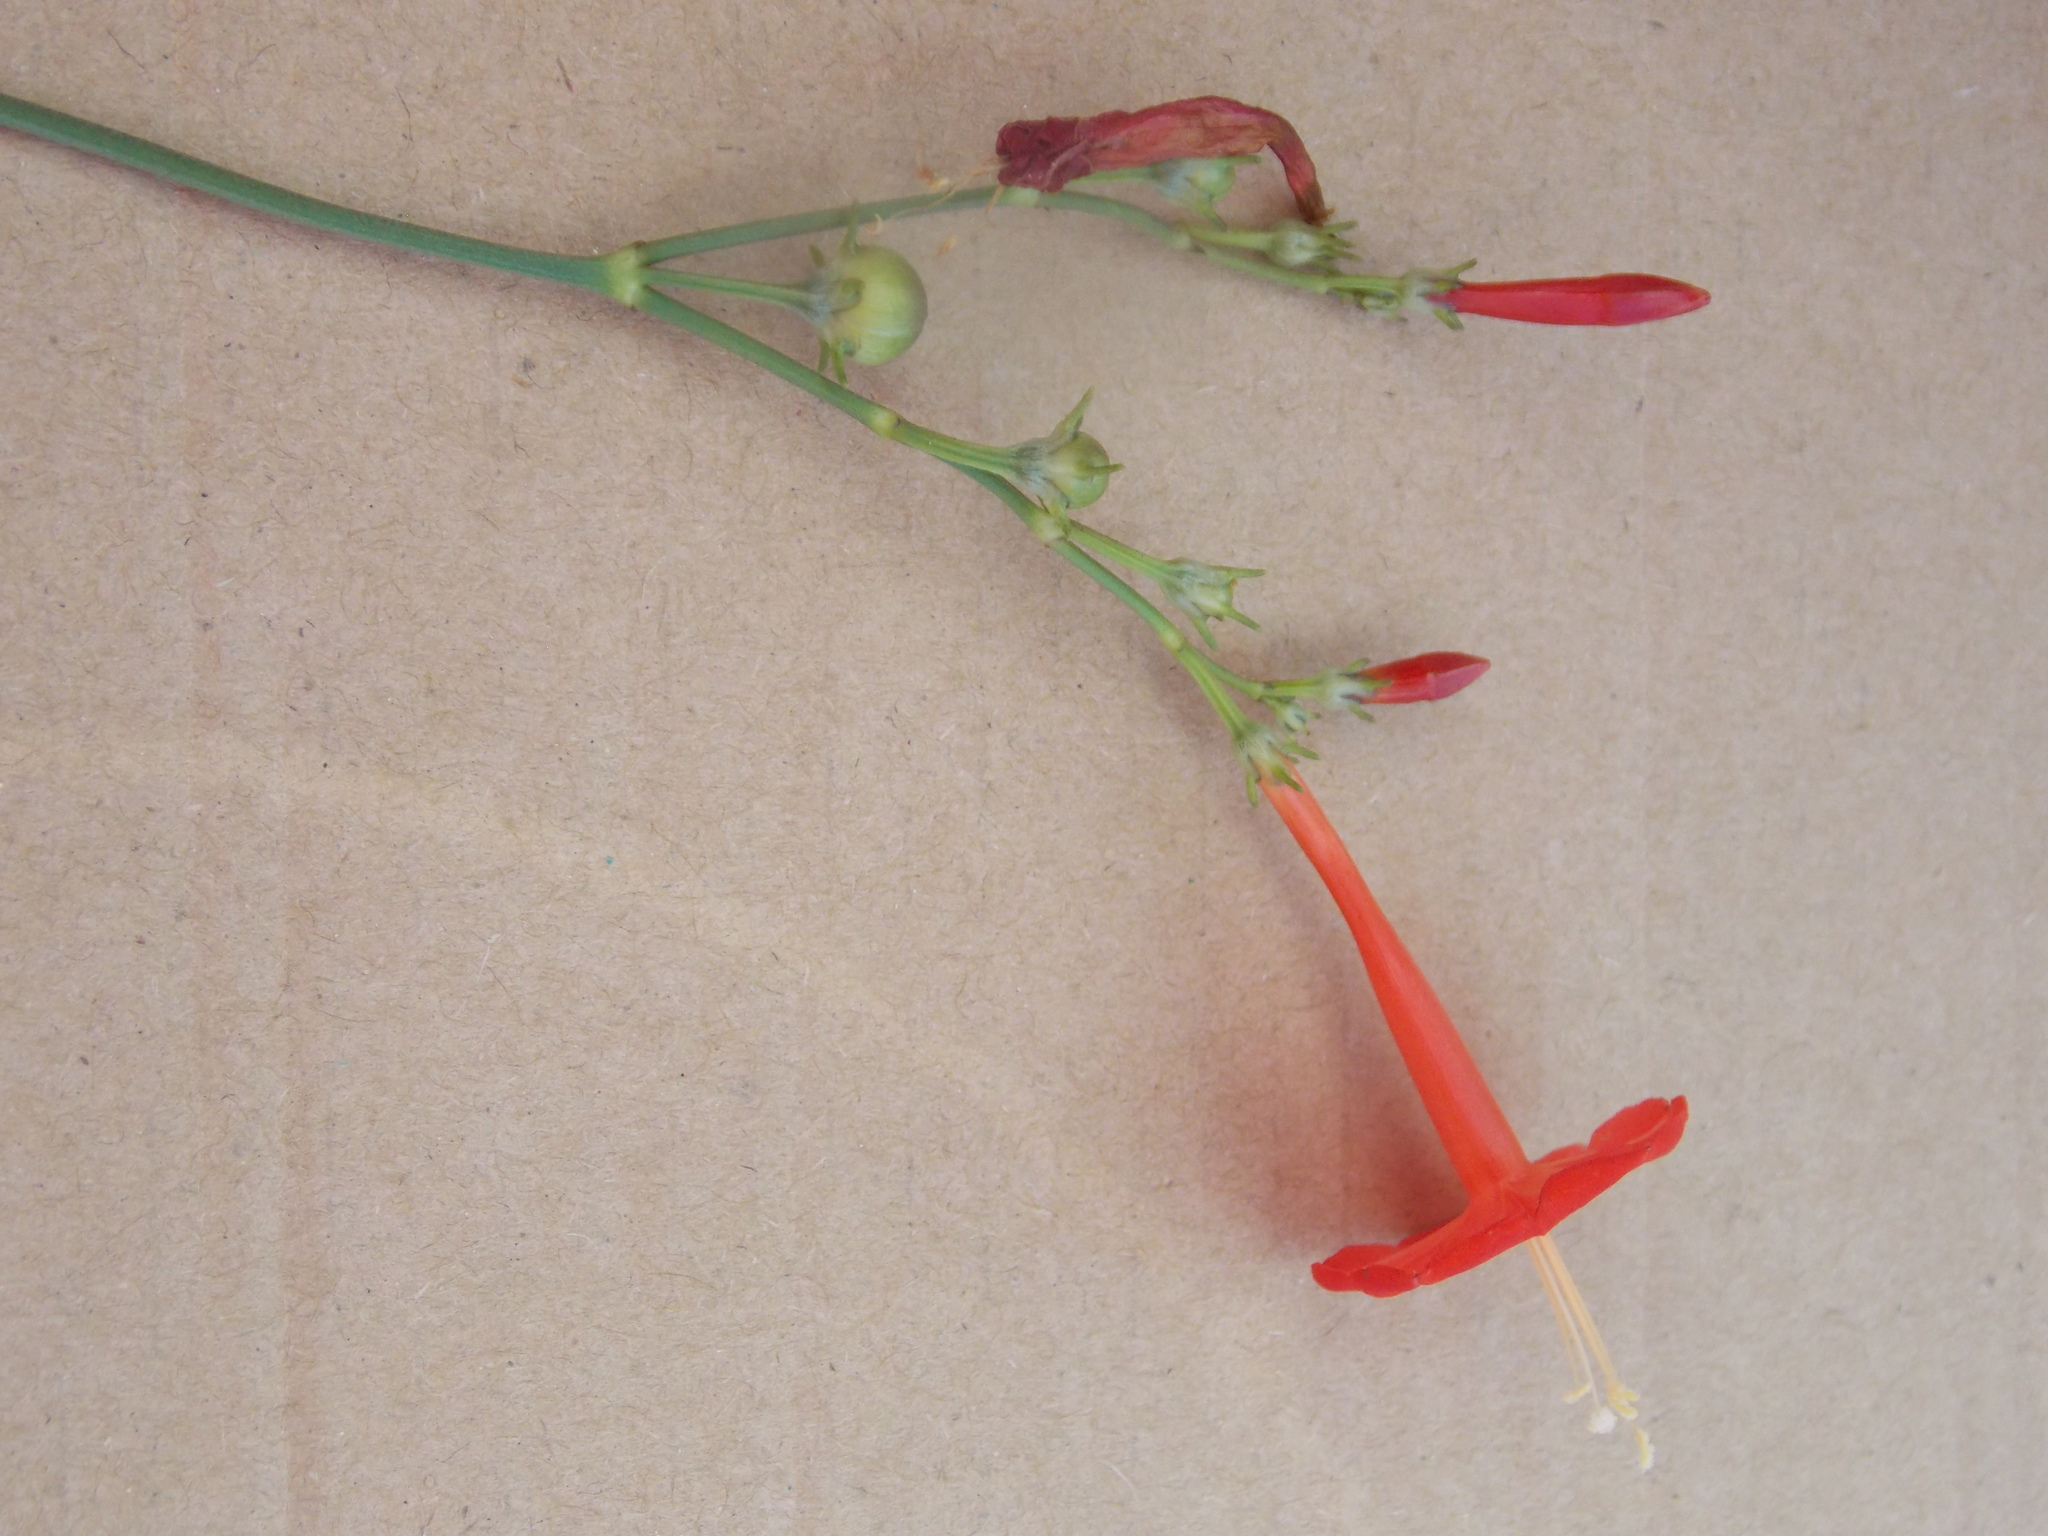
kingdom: Plantae
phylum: Tracheophyta
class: Magnoliopsida
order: Solanales
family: Convolvulaceae
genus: Ipomoea
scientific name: Ipomoea hederifolia
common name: Ivy-leaf morning-glory
